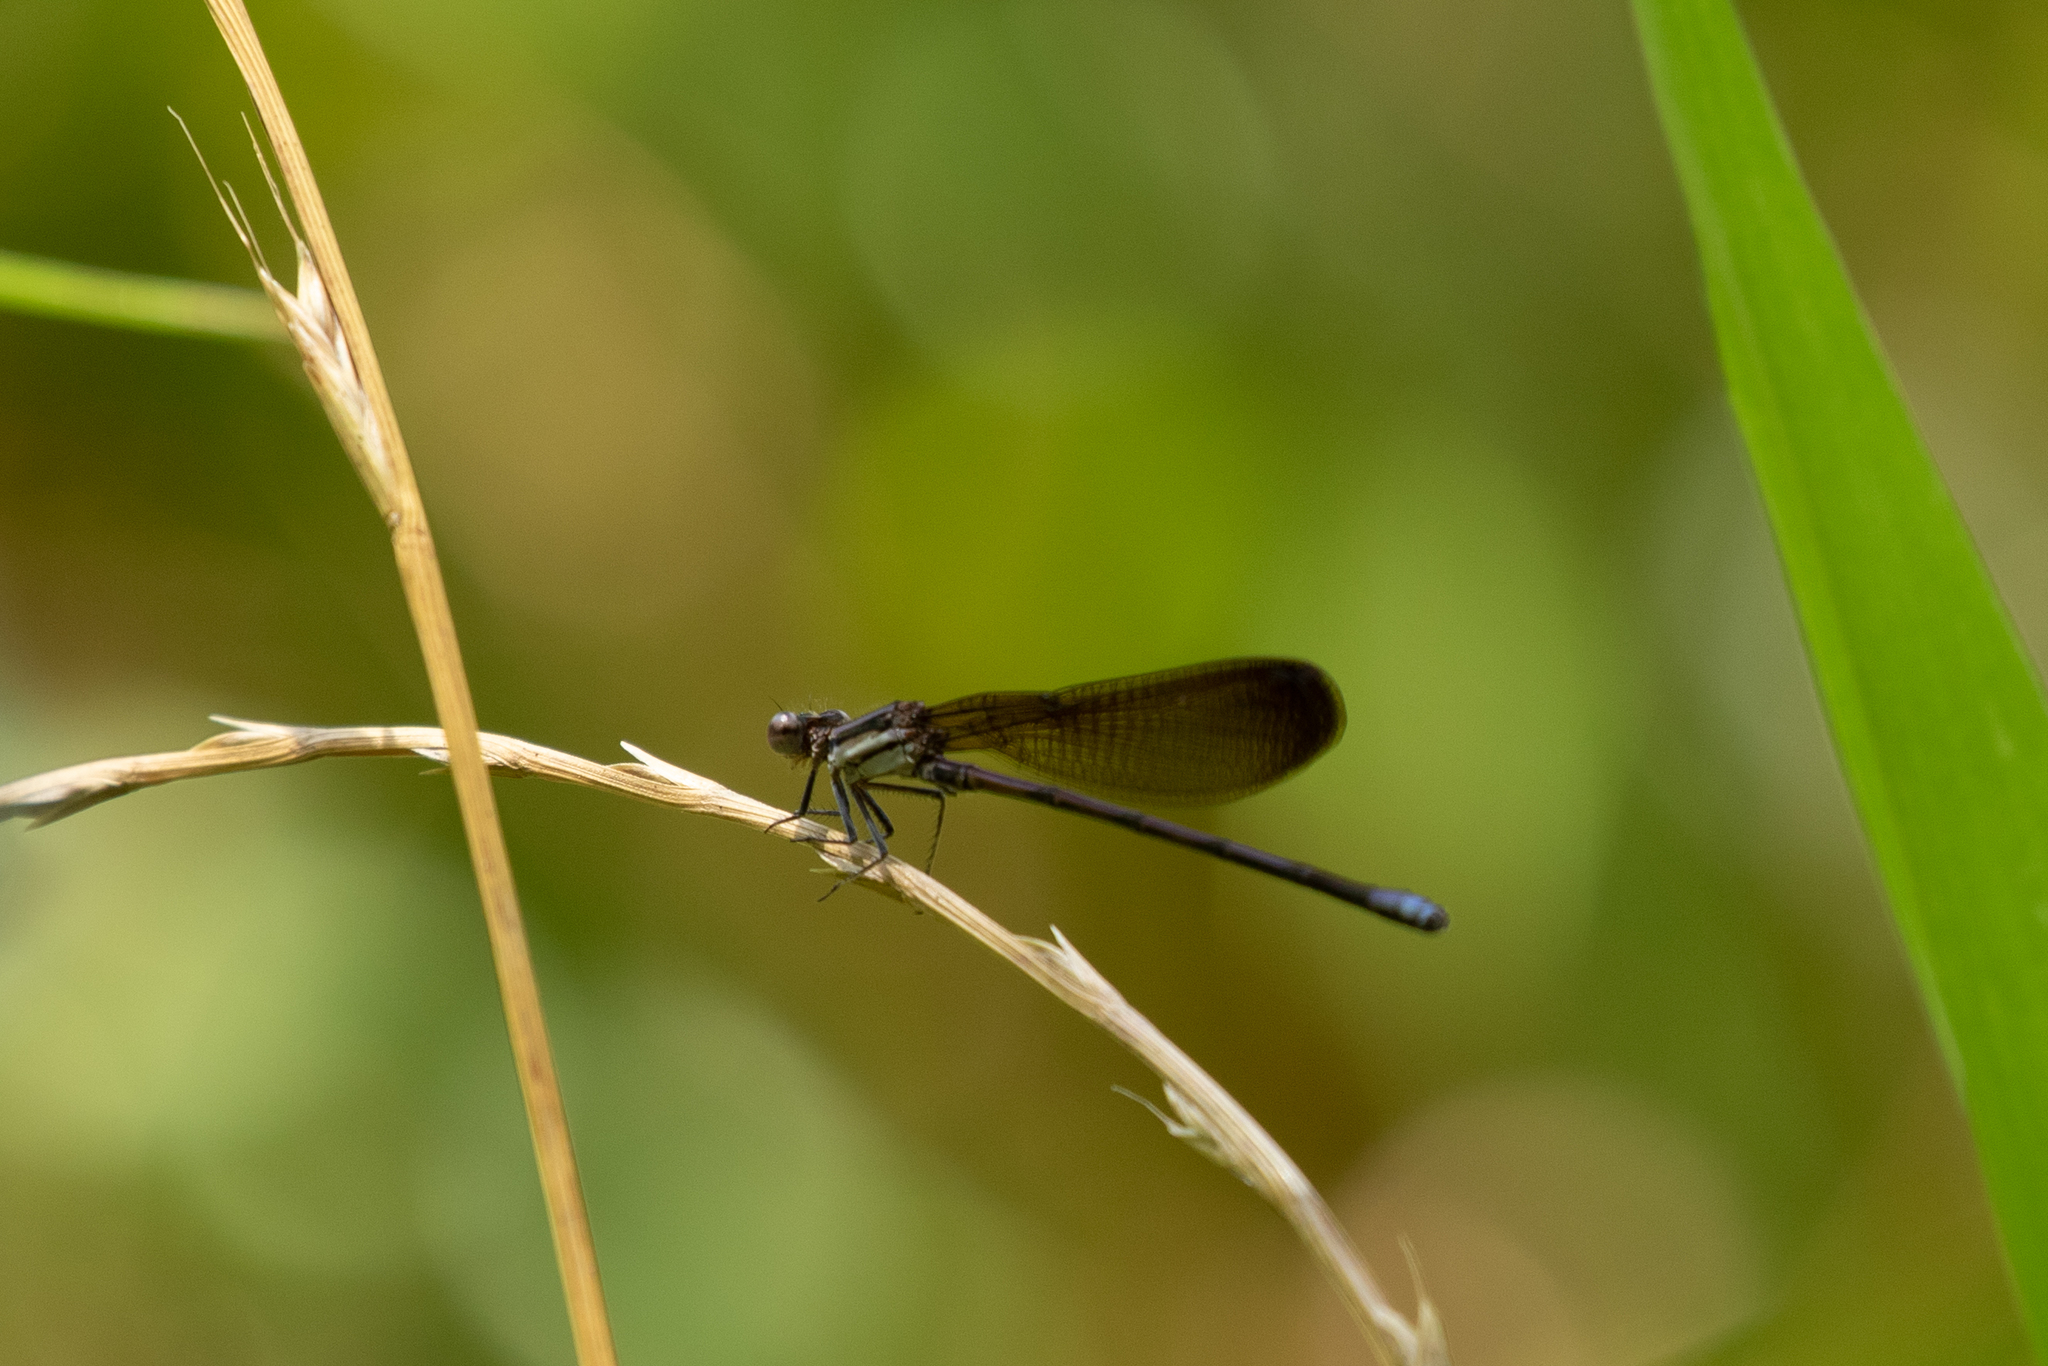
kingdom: Animalia
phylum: Arthropoda
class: Insecta
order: Odonata
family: Coenagrionidae
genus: Argia
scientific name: Argia fumipennis
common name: Variable dancer
